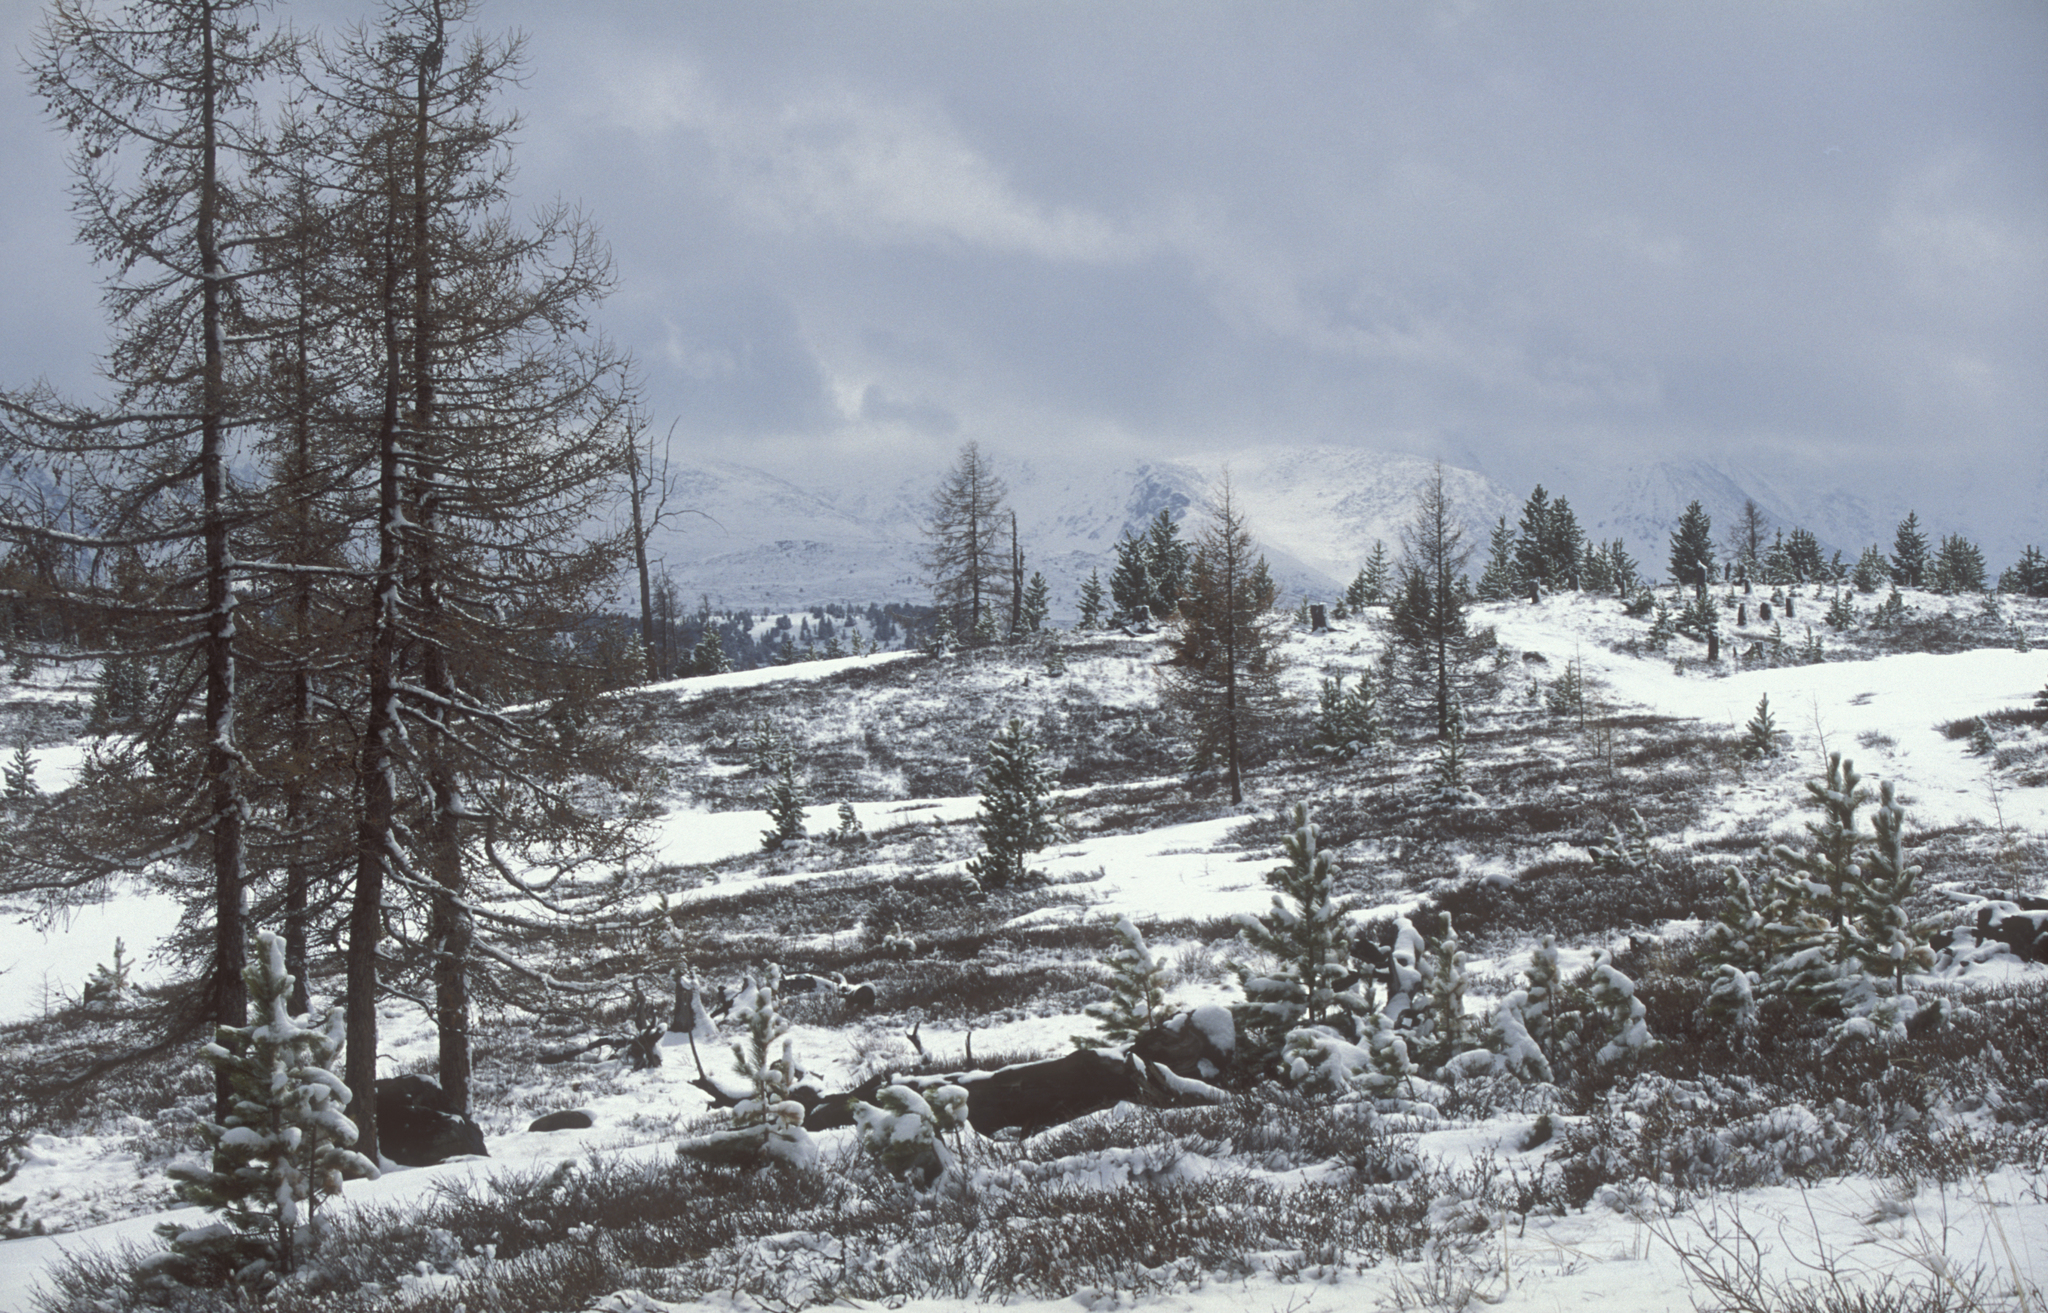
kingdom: Plantae
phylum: Tracheophyta
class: Pinopsida
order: Pinales
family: Pinaceae
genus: Larix
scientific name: Larix sibirica
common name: Siberian larch
